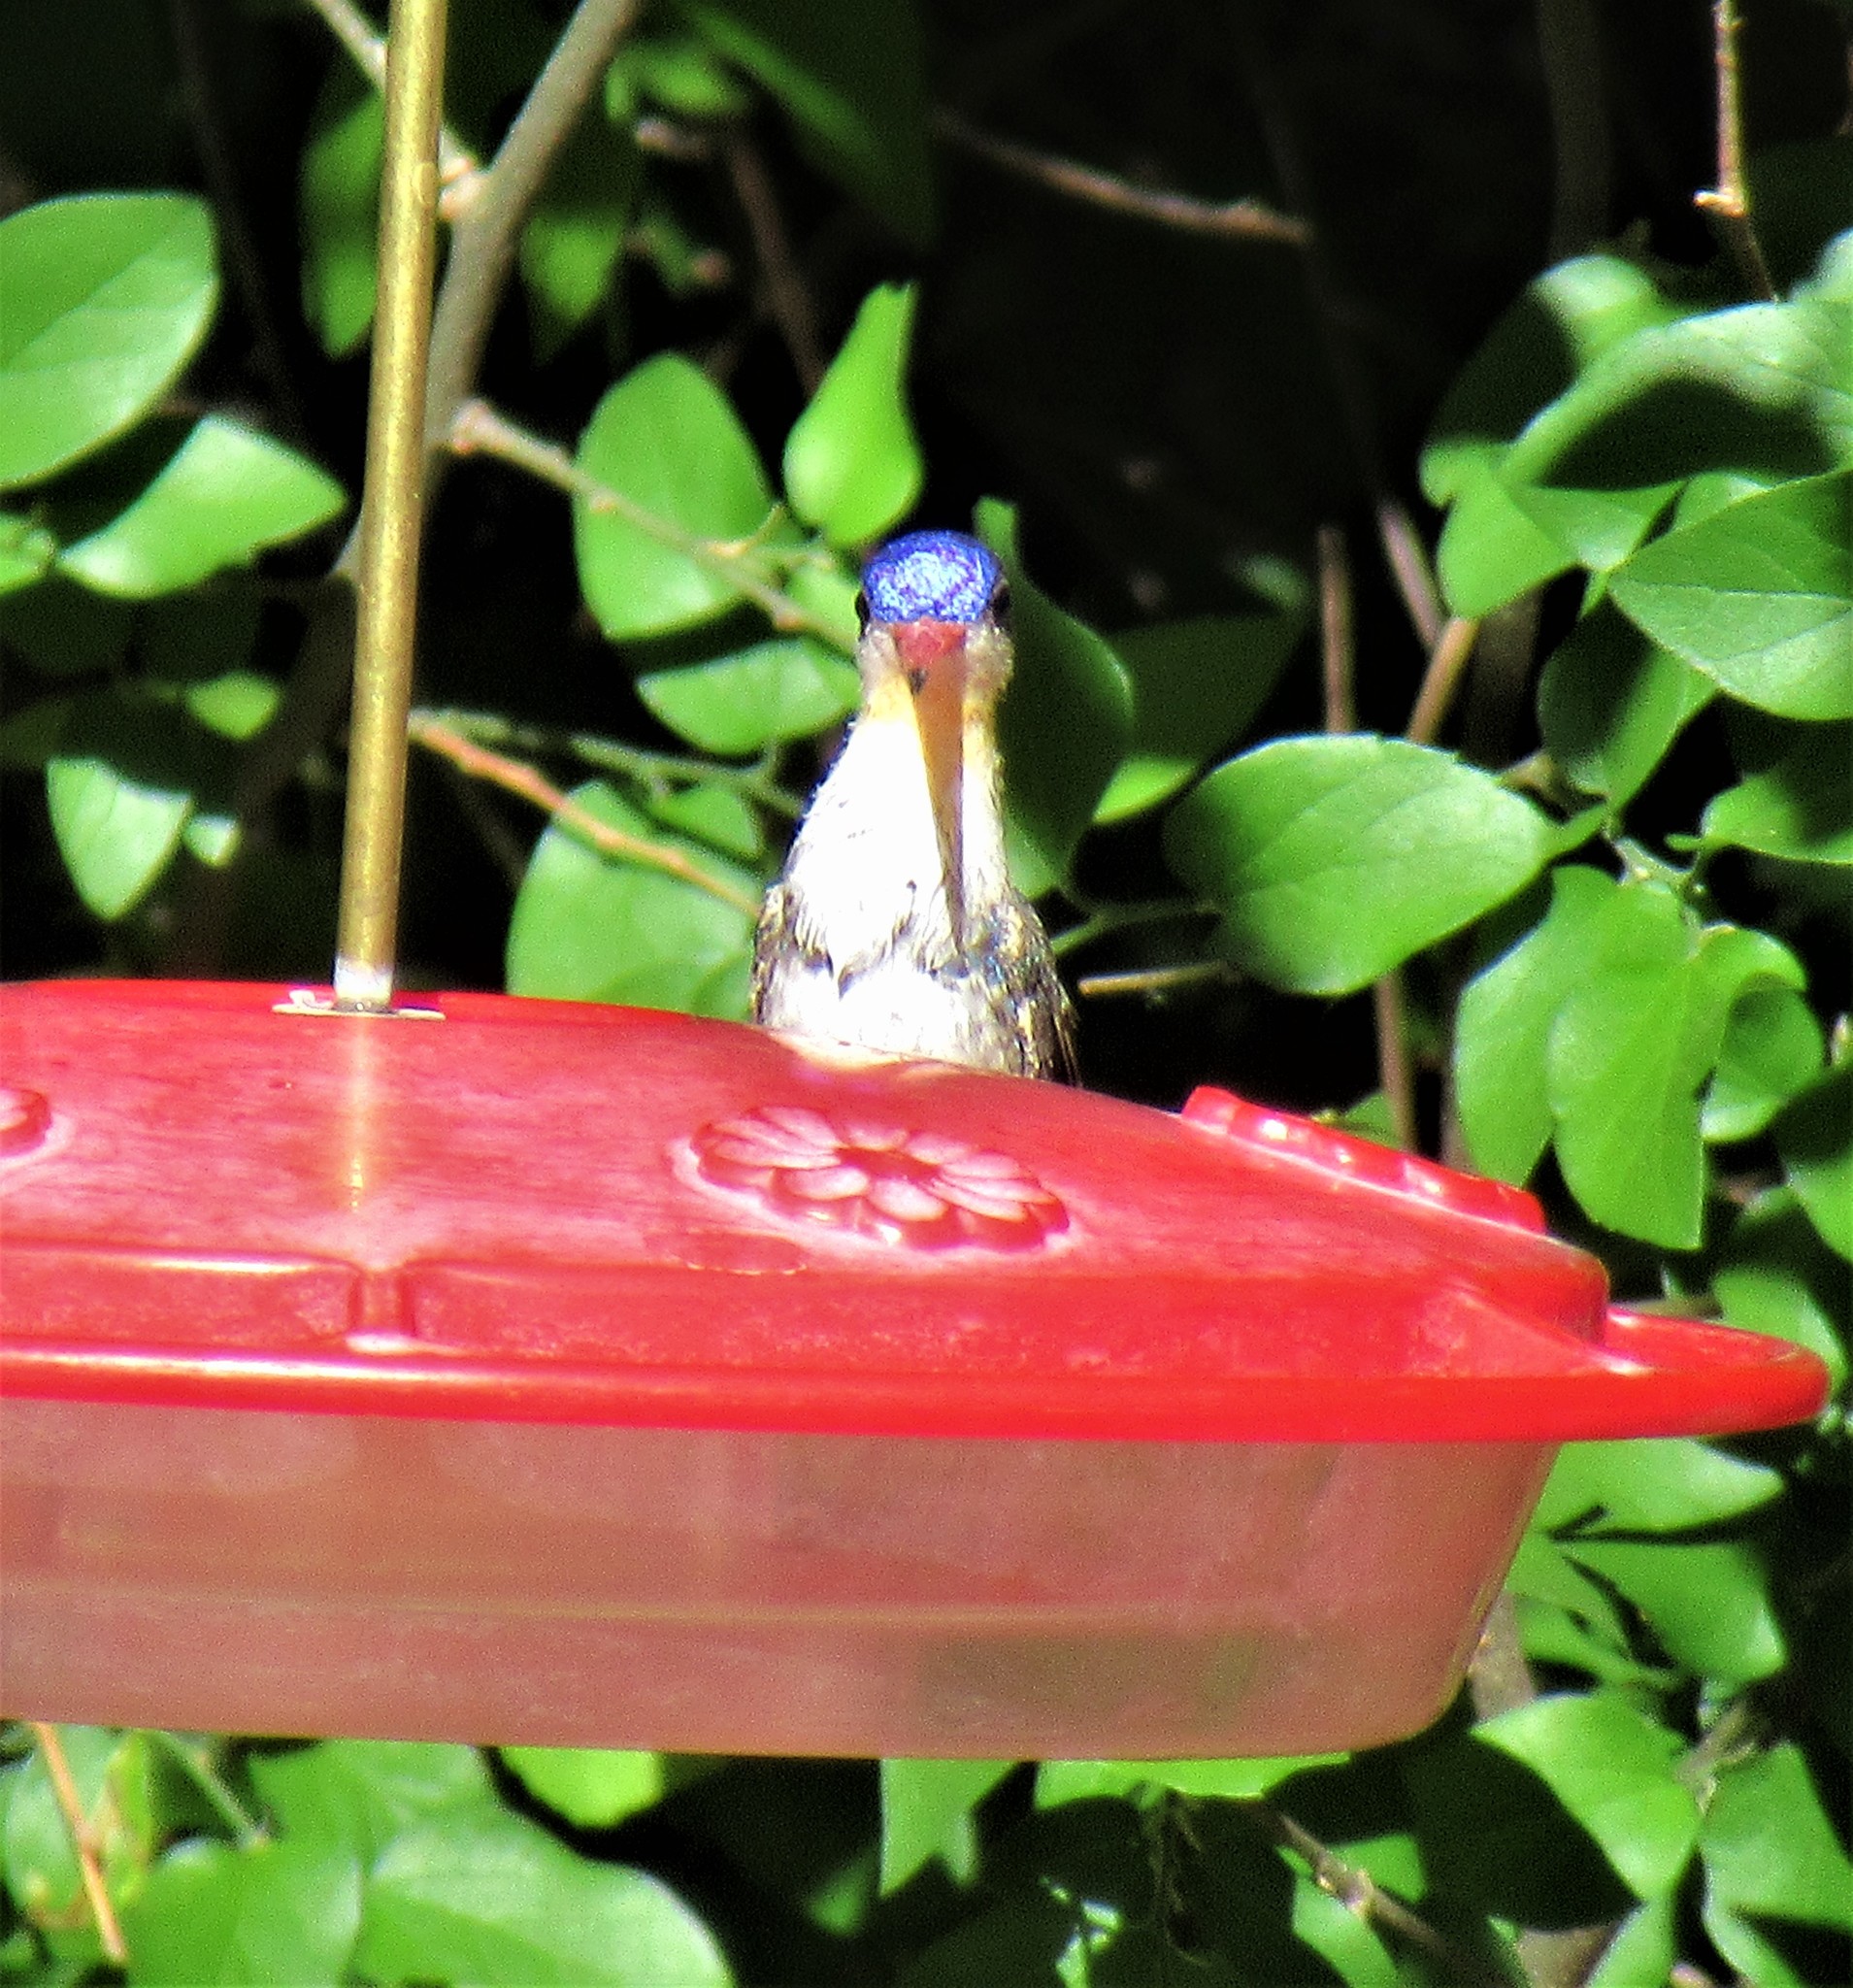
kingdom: Animalia
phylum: Chordata
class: Aves
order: Apodiformes
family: Trochilidae
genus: Leucolia
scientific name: Leucolia violiceps
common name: Violet-crowned hummingbird
